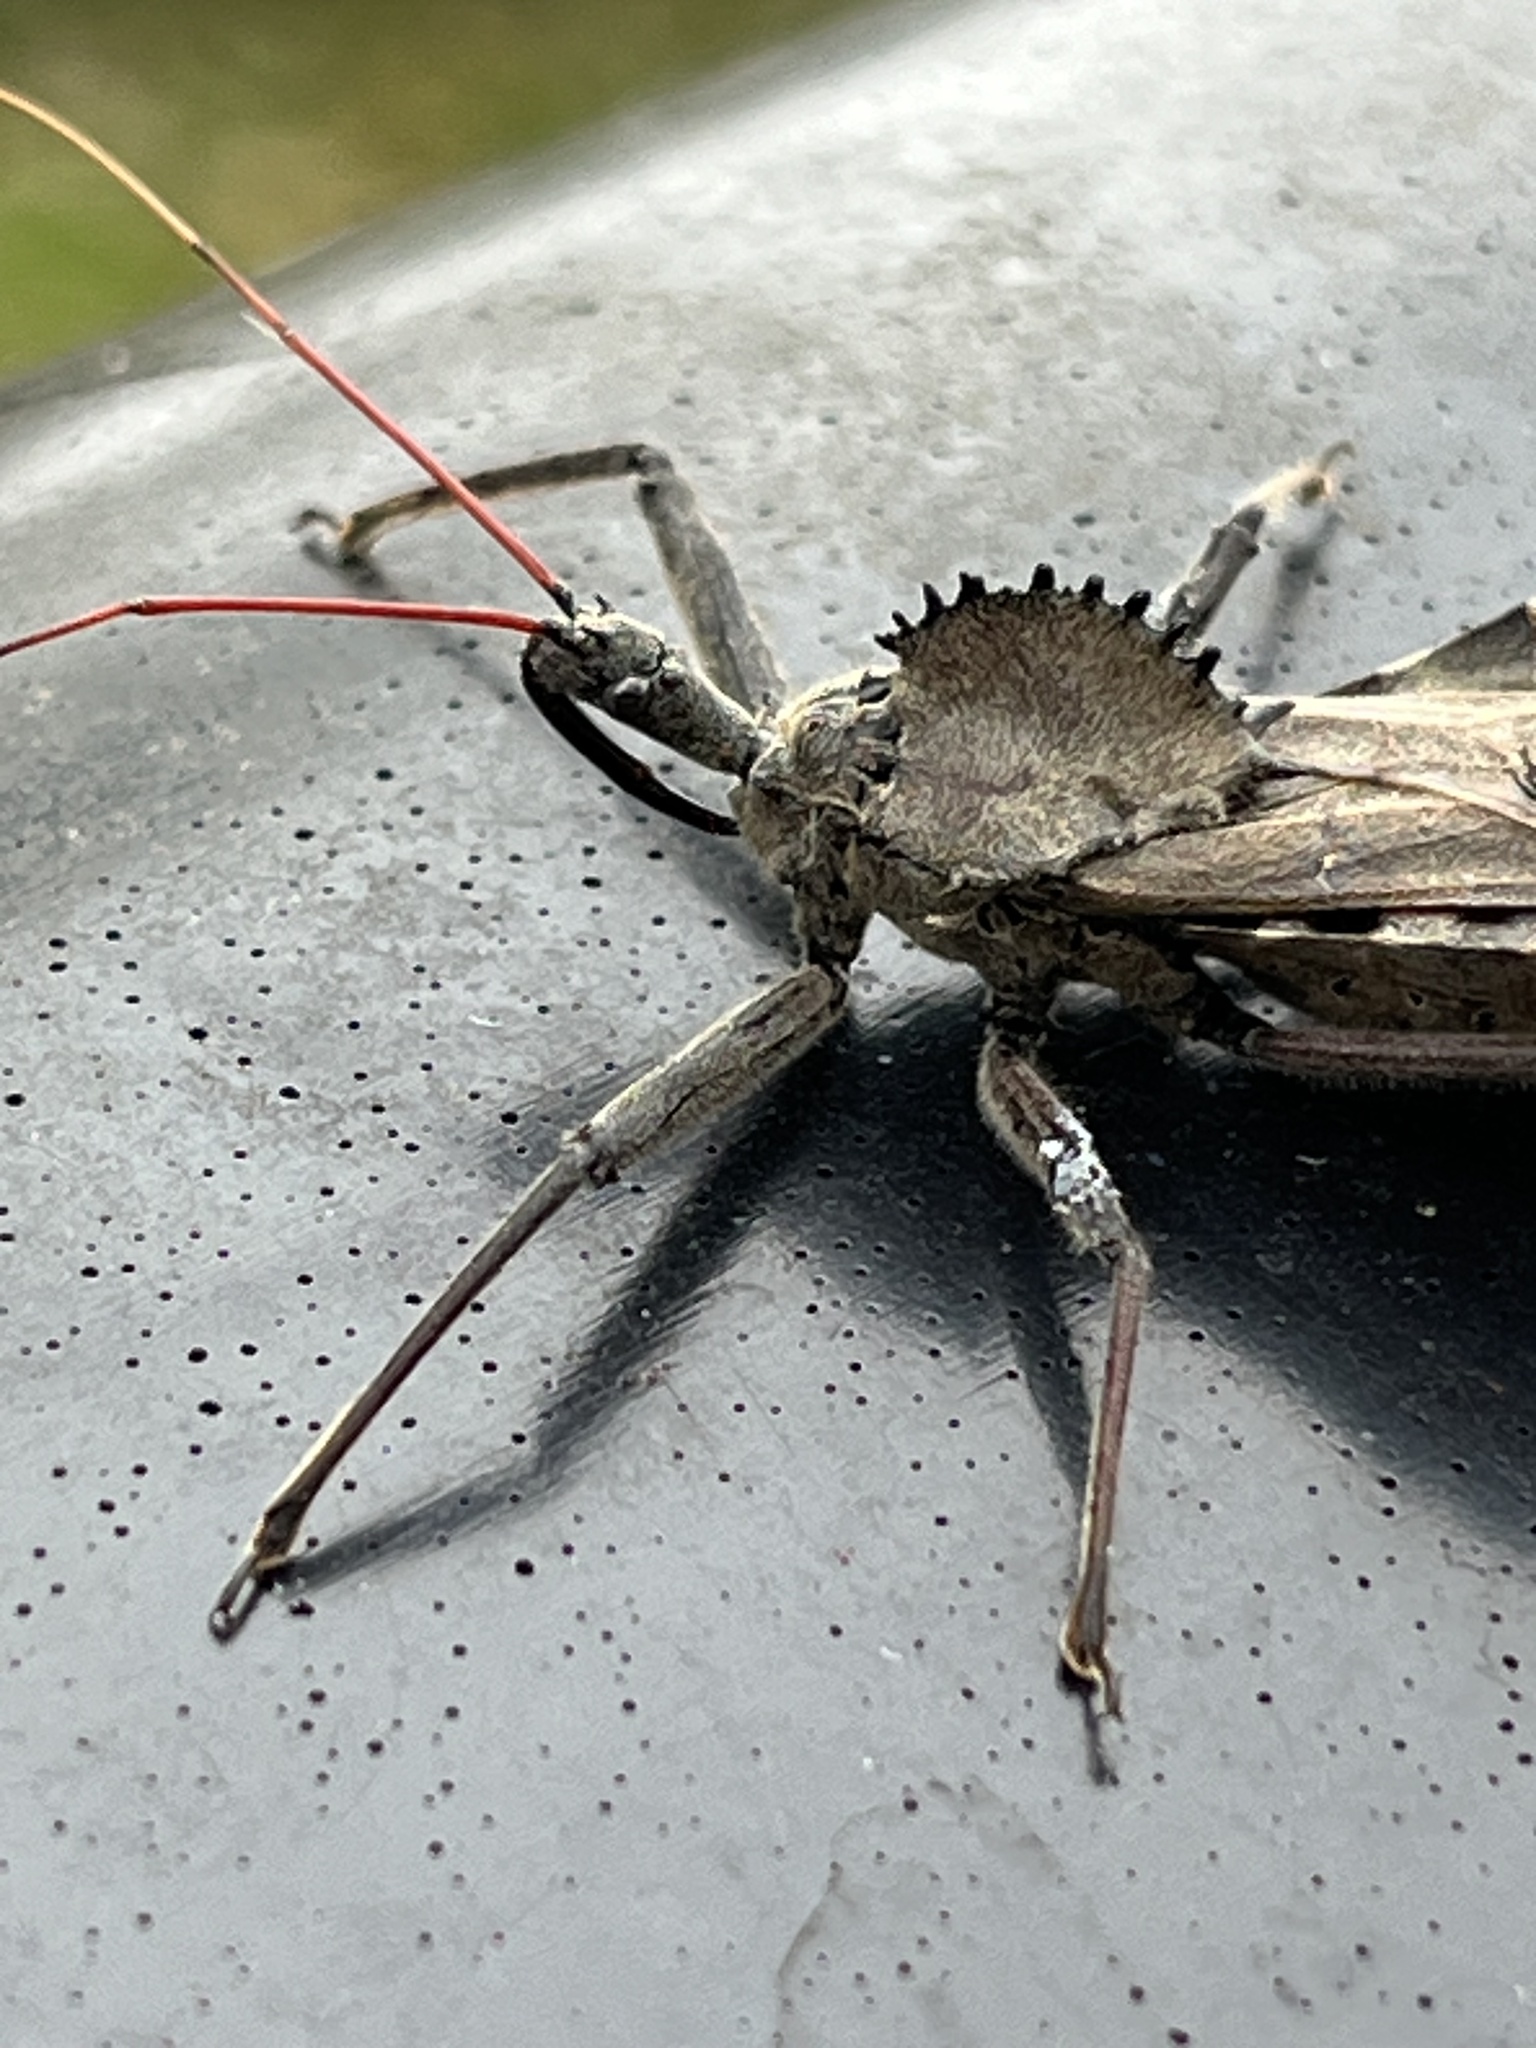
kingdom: Animalia
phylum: Arthropoda
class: Insecta
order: Hemiptera
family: Reduviidae
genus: Arilus
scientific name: Arilus cristatus
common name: North american wheel bug
